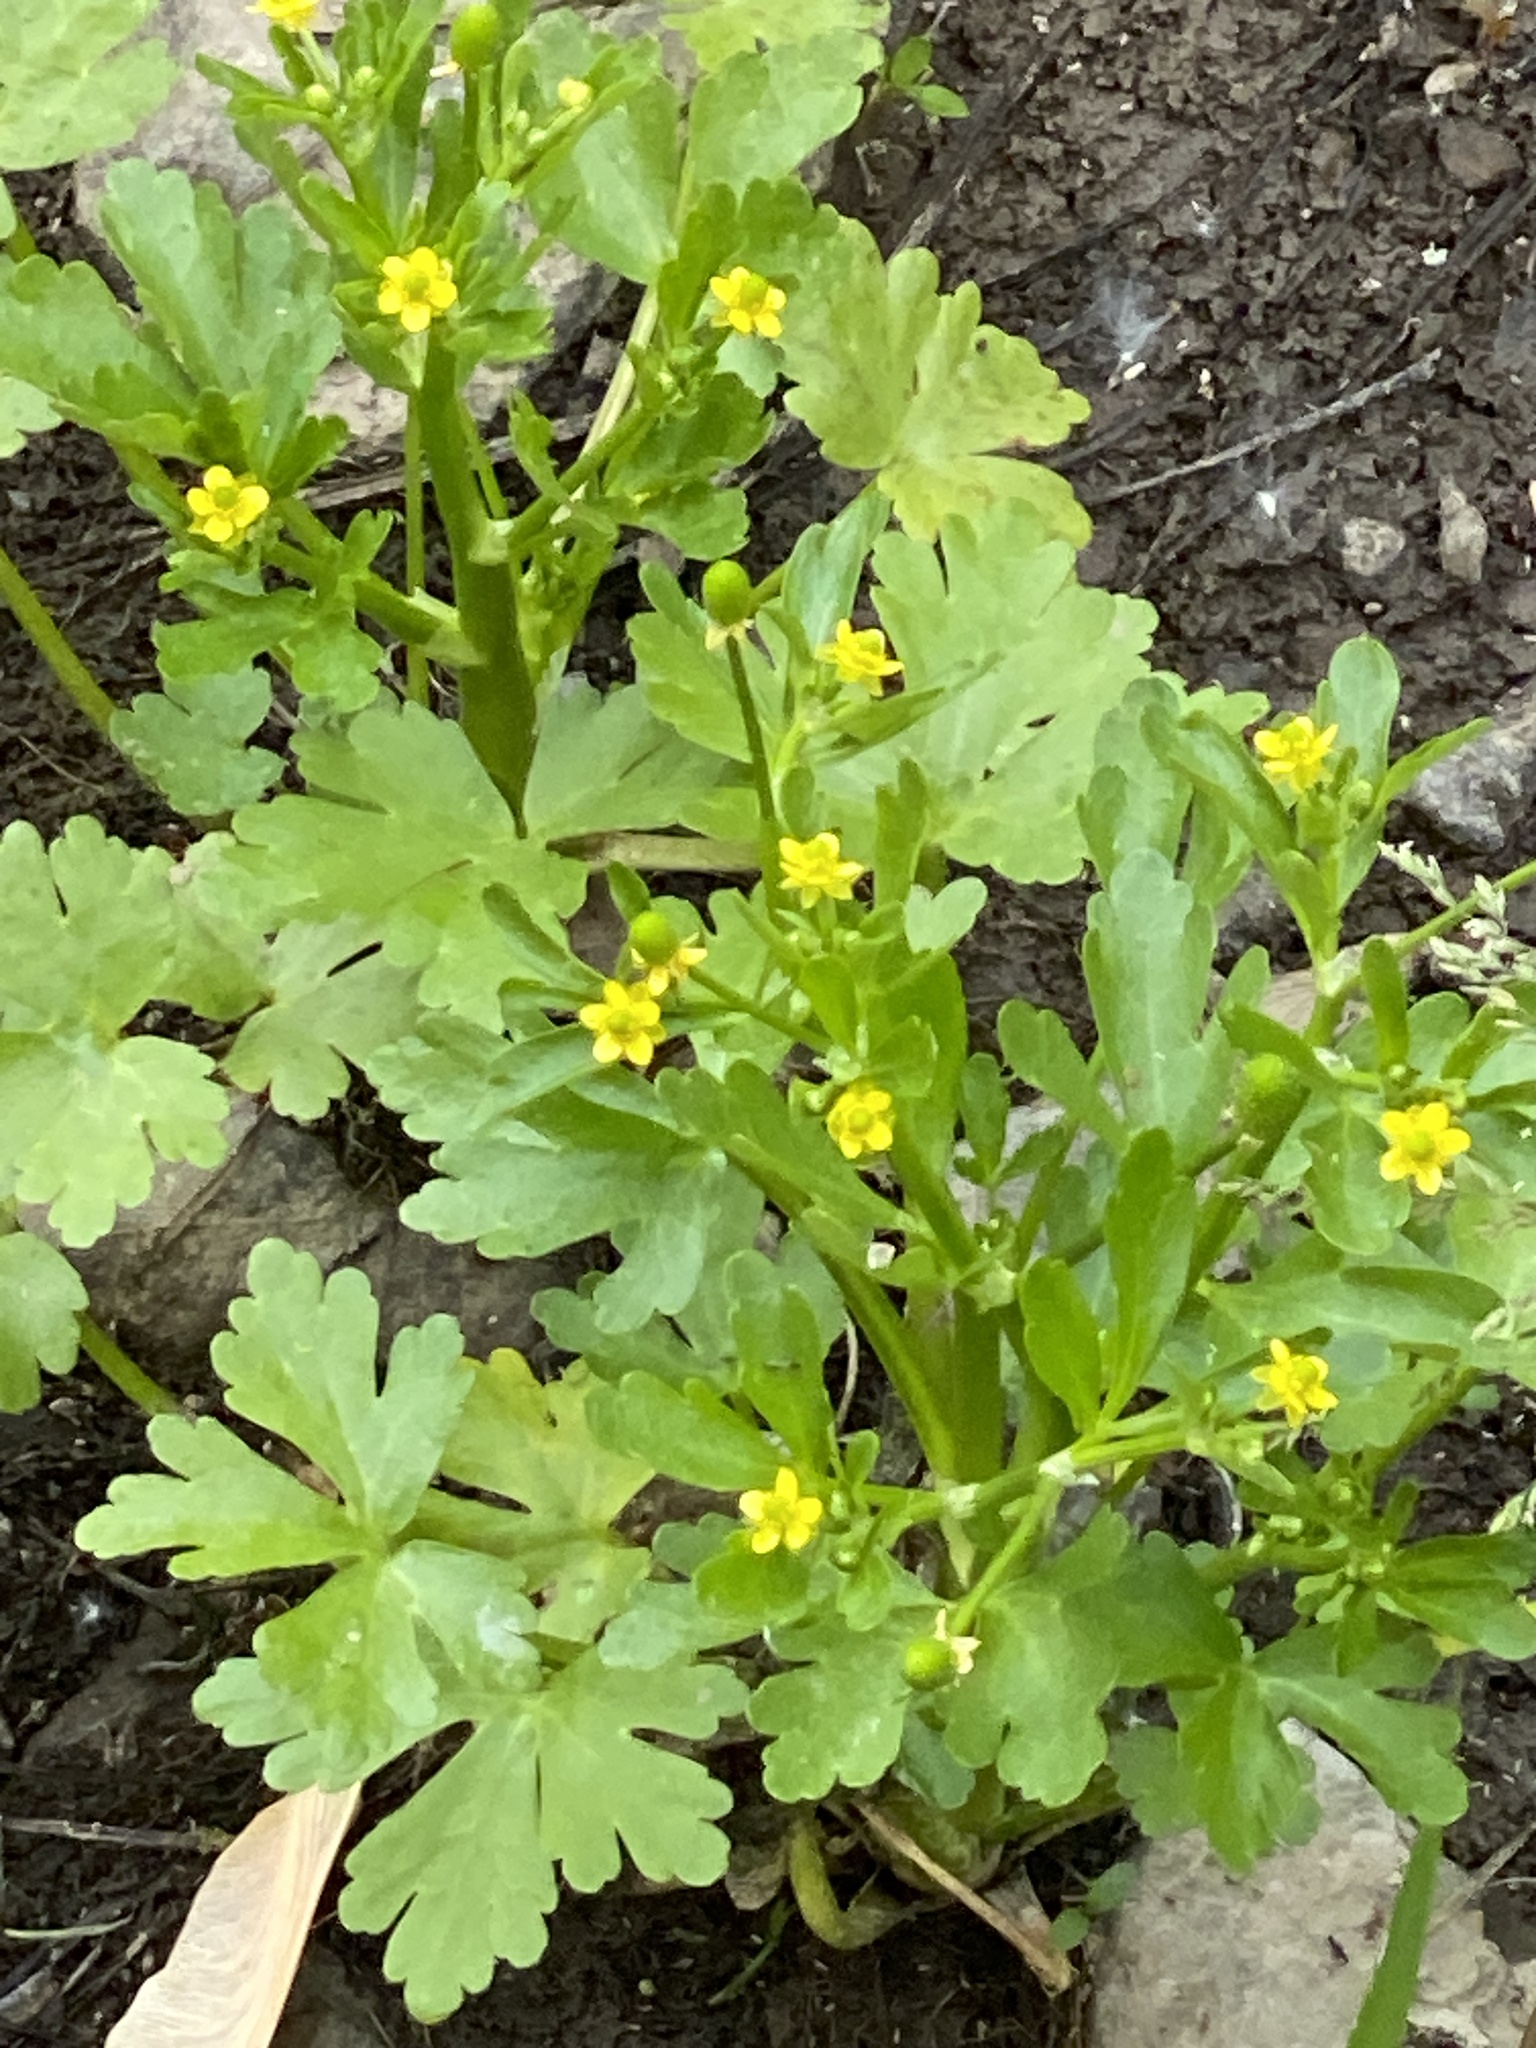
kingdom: Plantae
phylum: Tracheophyta
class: Magnoliopsida
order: Ranunculales
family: Ranunculaceae
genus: Ranunculus
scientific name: Ranunculus sceleratus
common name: Celery-leaved buttercup
